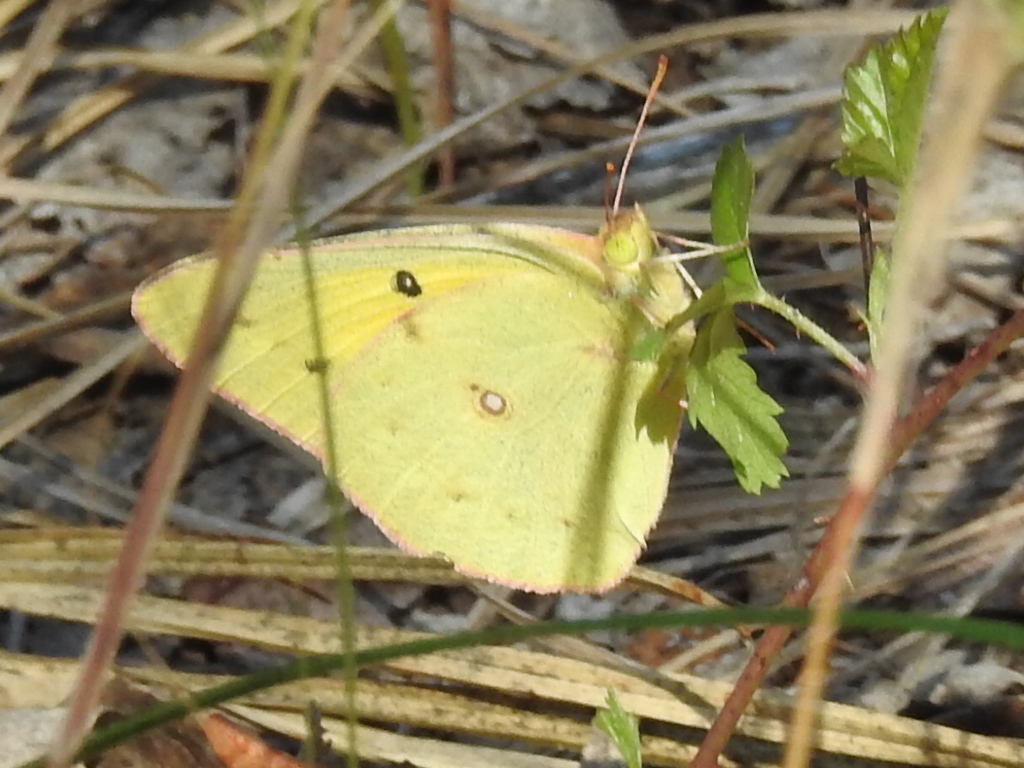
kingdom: Animalia
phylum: Arthropoda
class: Insecta
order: Lepidoptera
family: Pieridae
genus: Colias
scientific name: Colias eurytheme
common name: Alfalfa butterfly
